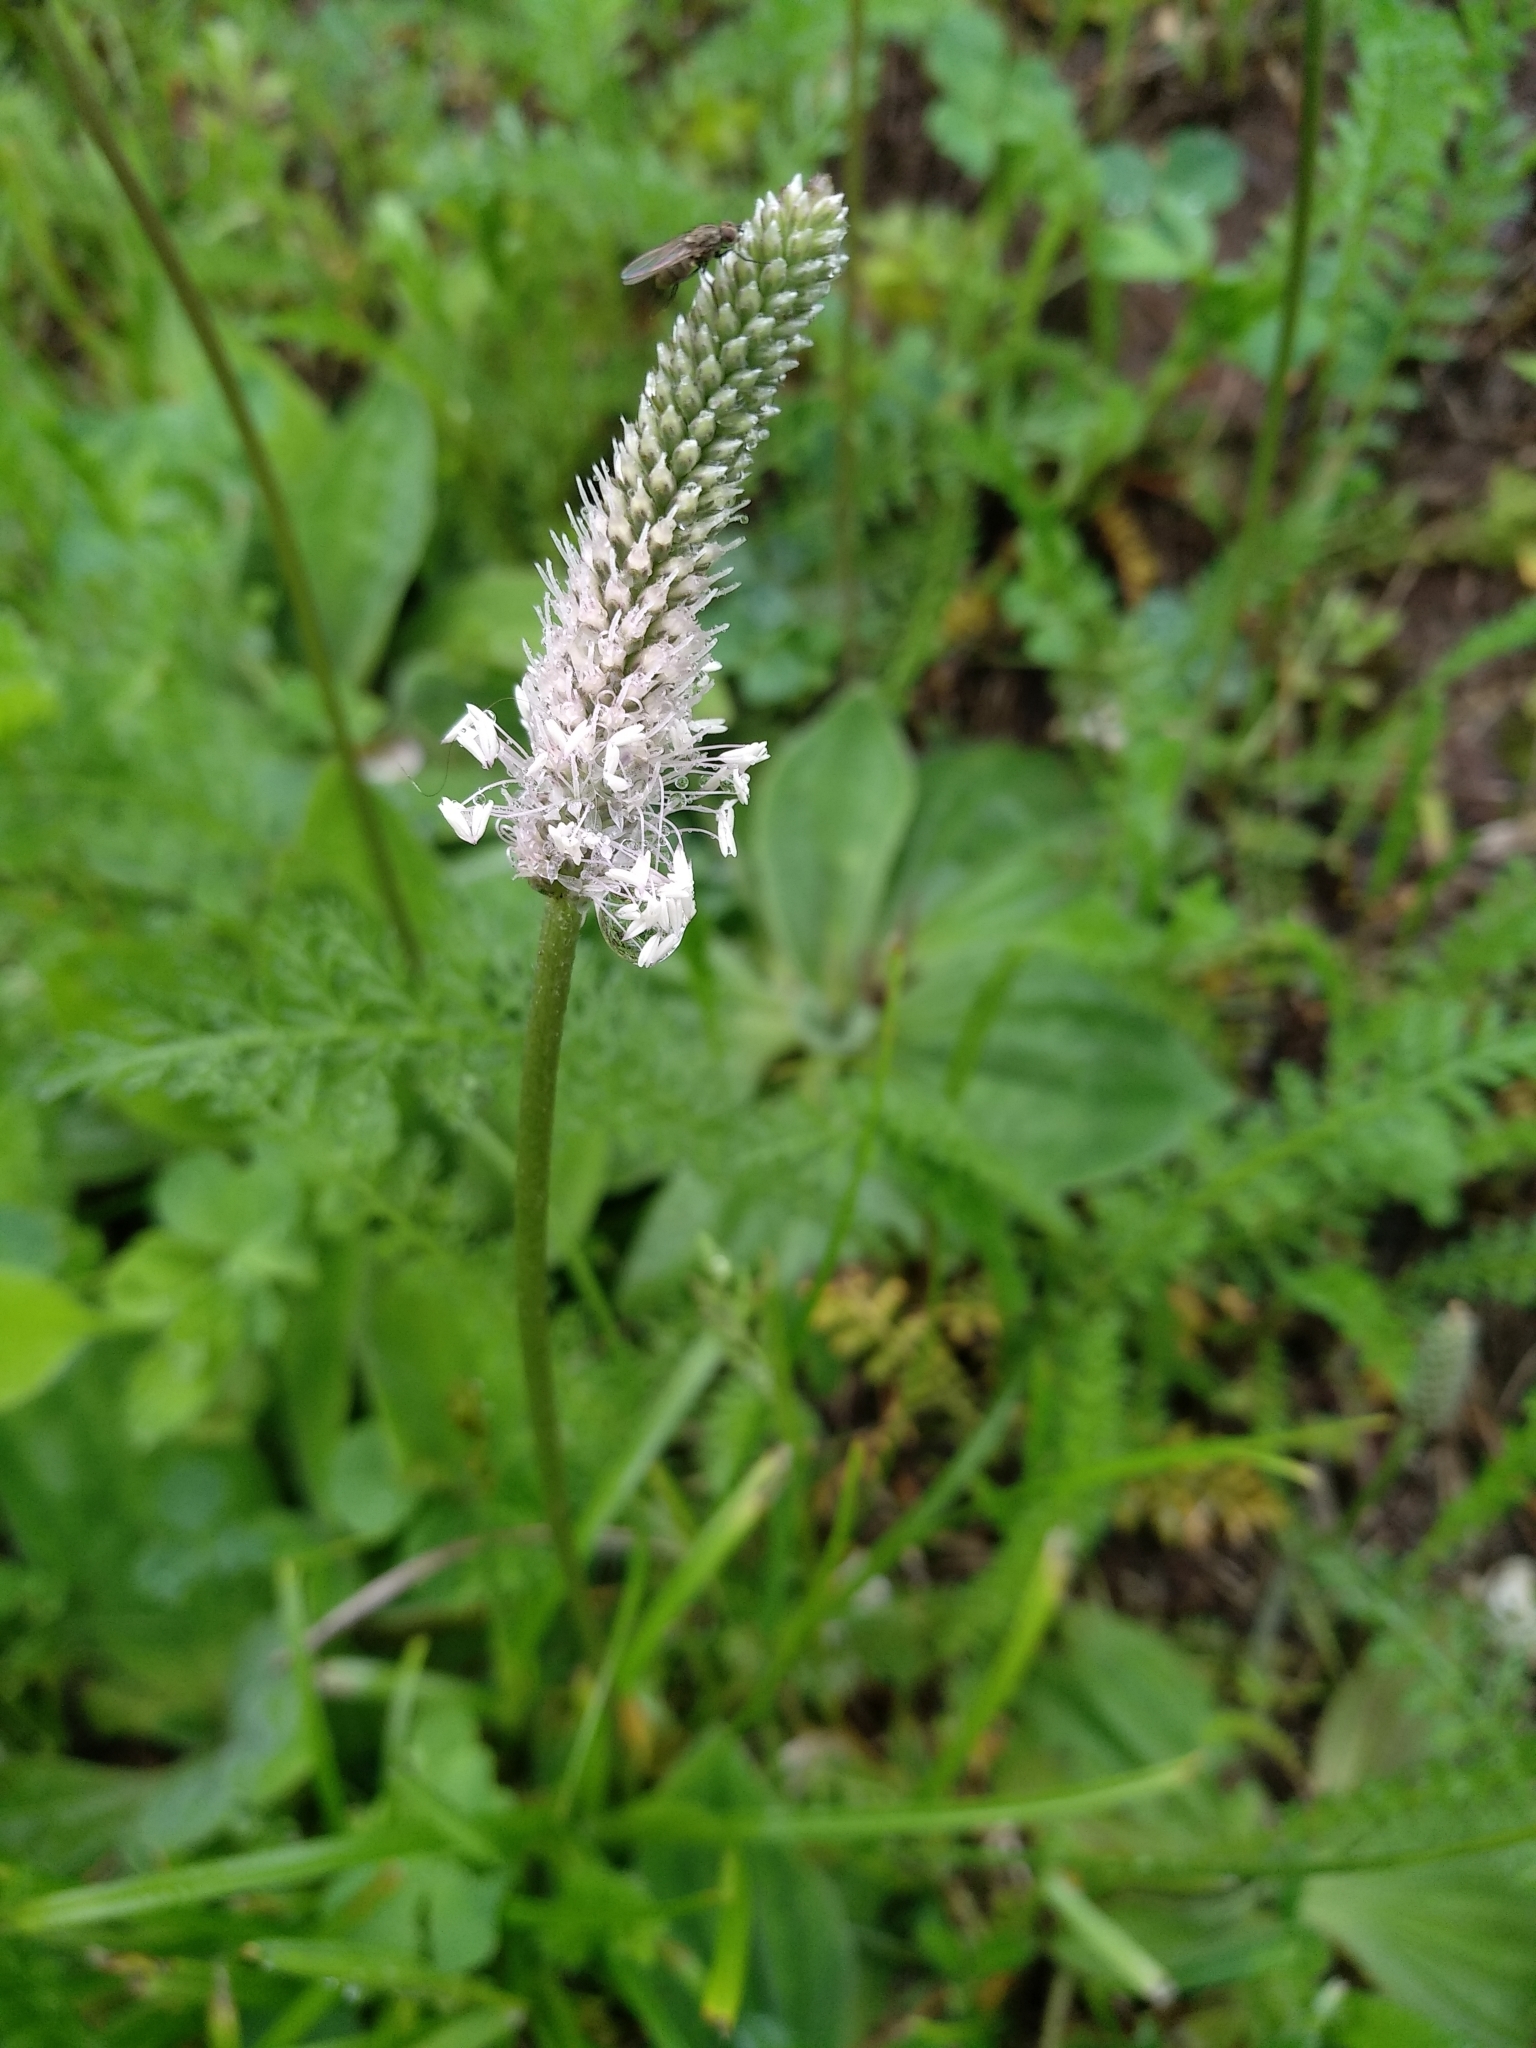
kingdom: Plantae
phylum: Tracheophyta
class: Magnoliopsida
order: Lamiales
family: Plantaginaceae
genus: Plantago
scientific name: Plantago media
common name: Hoary plantain
